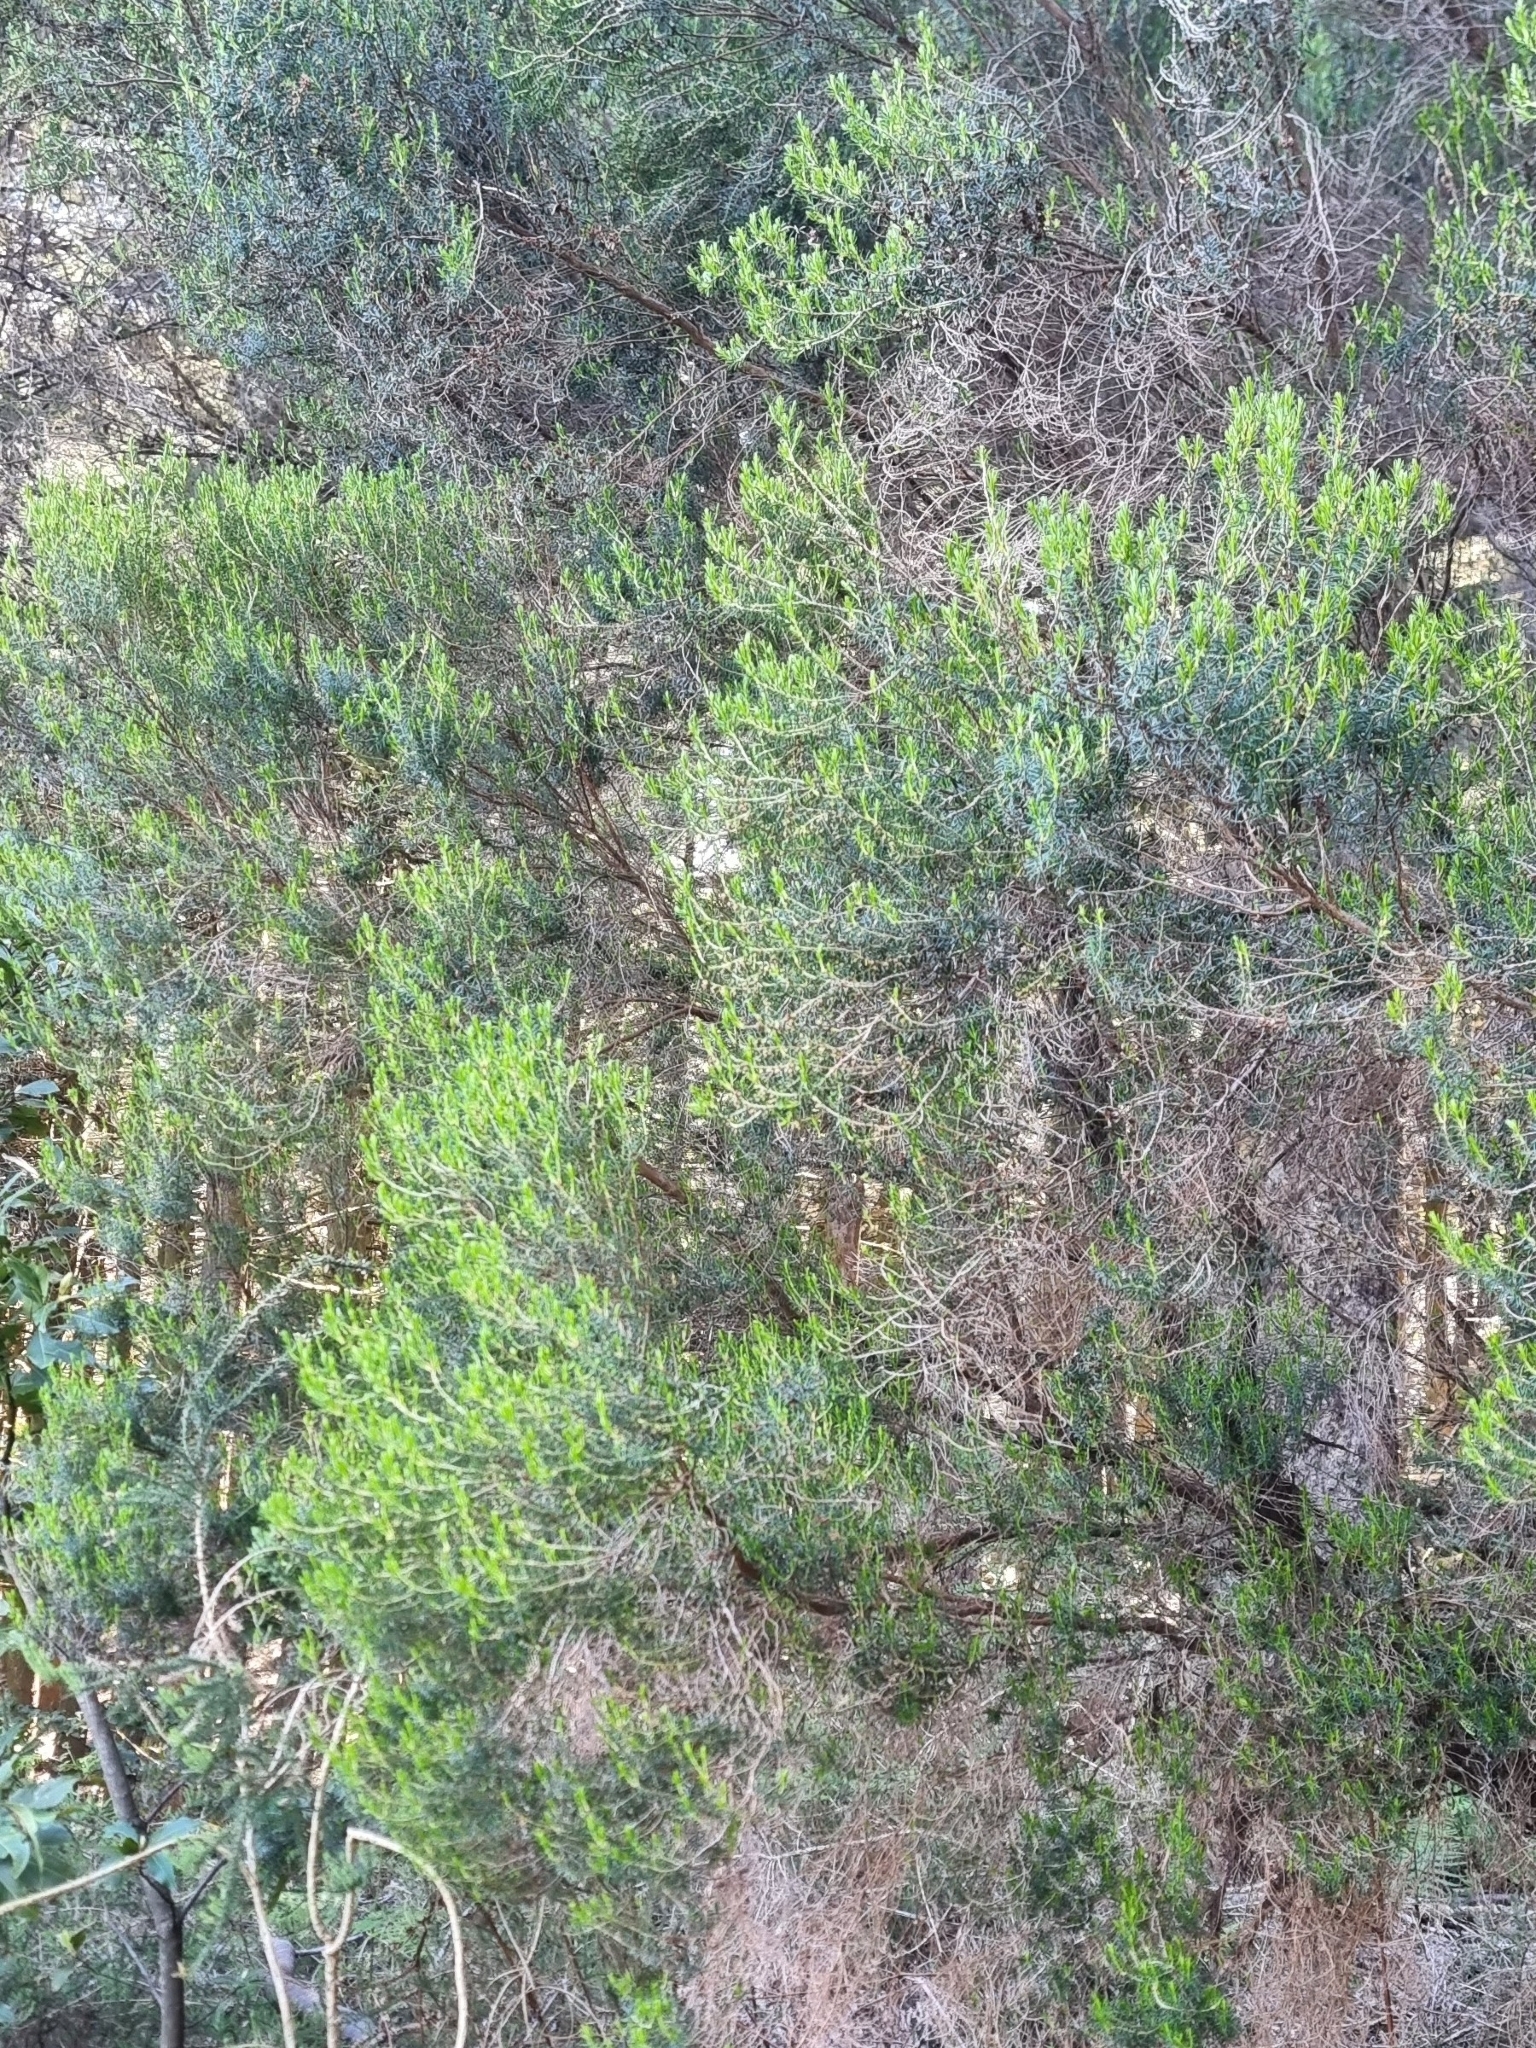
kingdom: Plantae
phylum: Tracheophyta
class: Magnoliopsida
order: Ericales
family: Ericaceae
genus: Erica
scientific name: Erica platycodon
